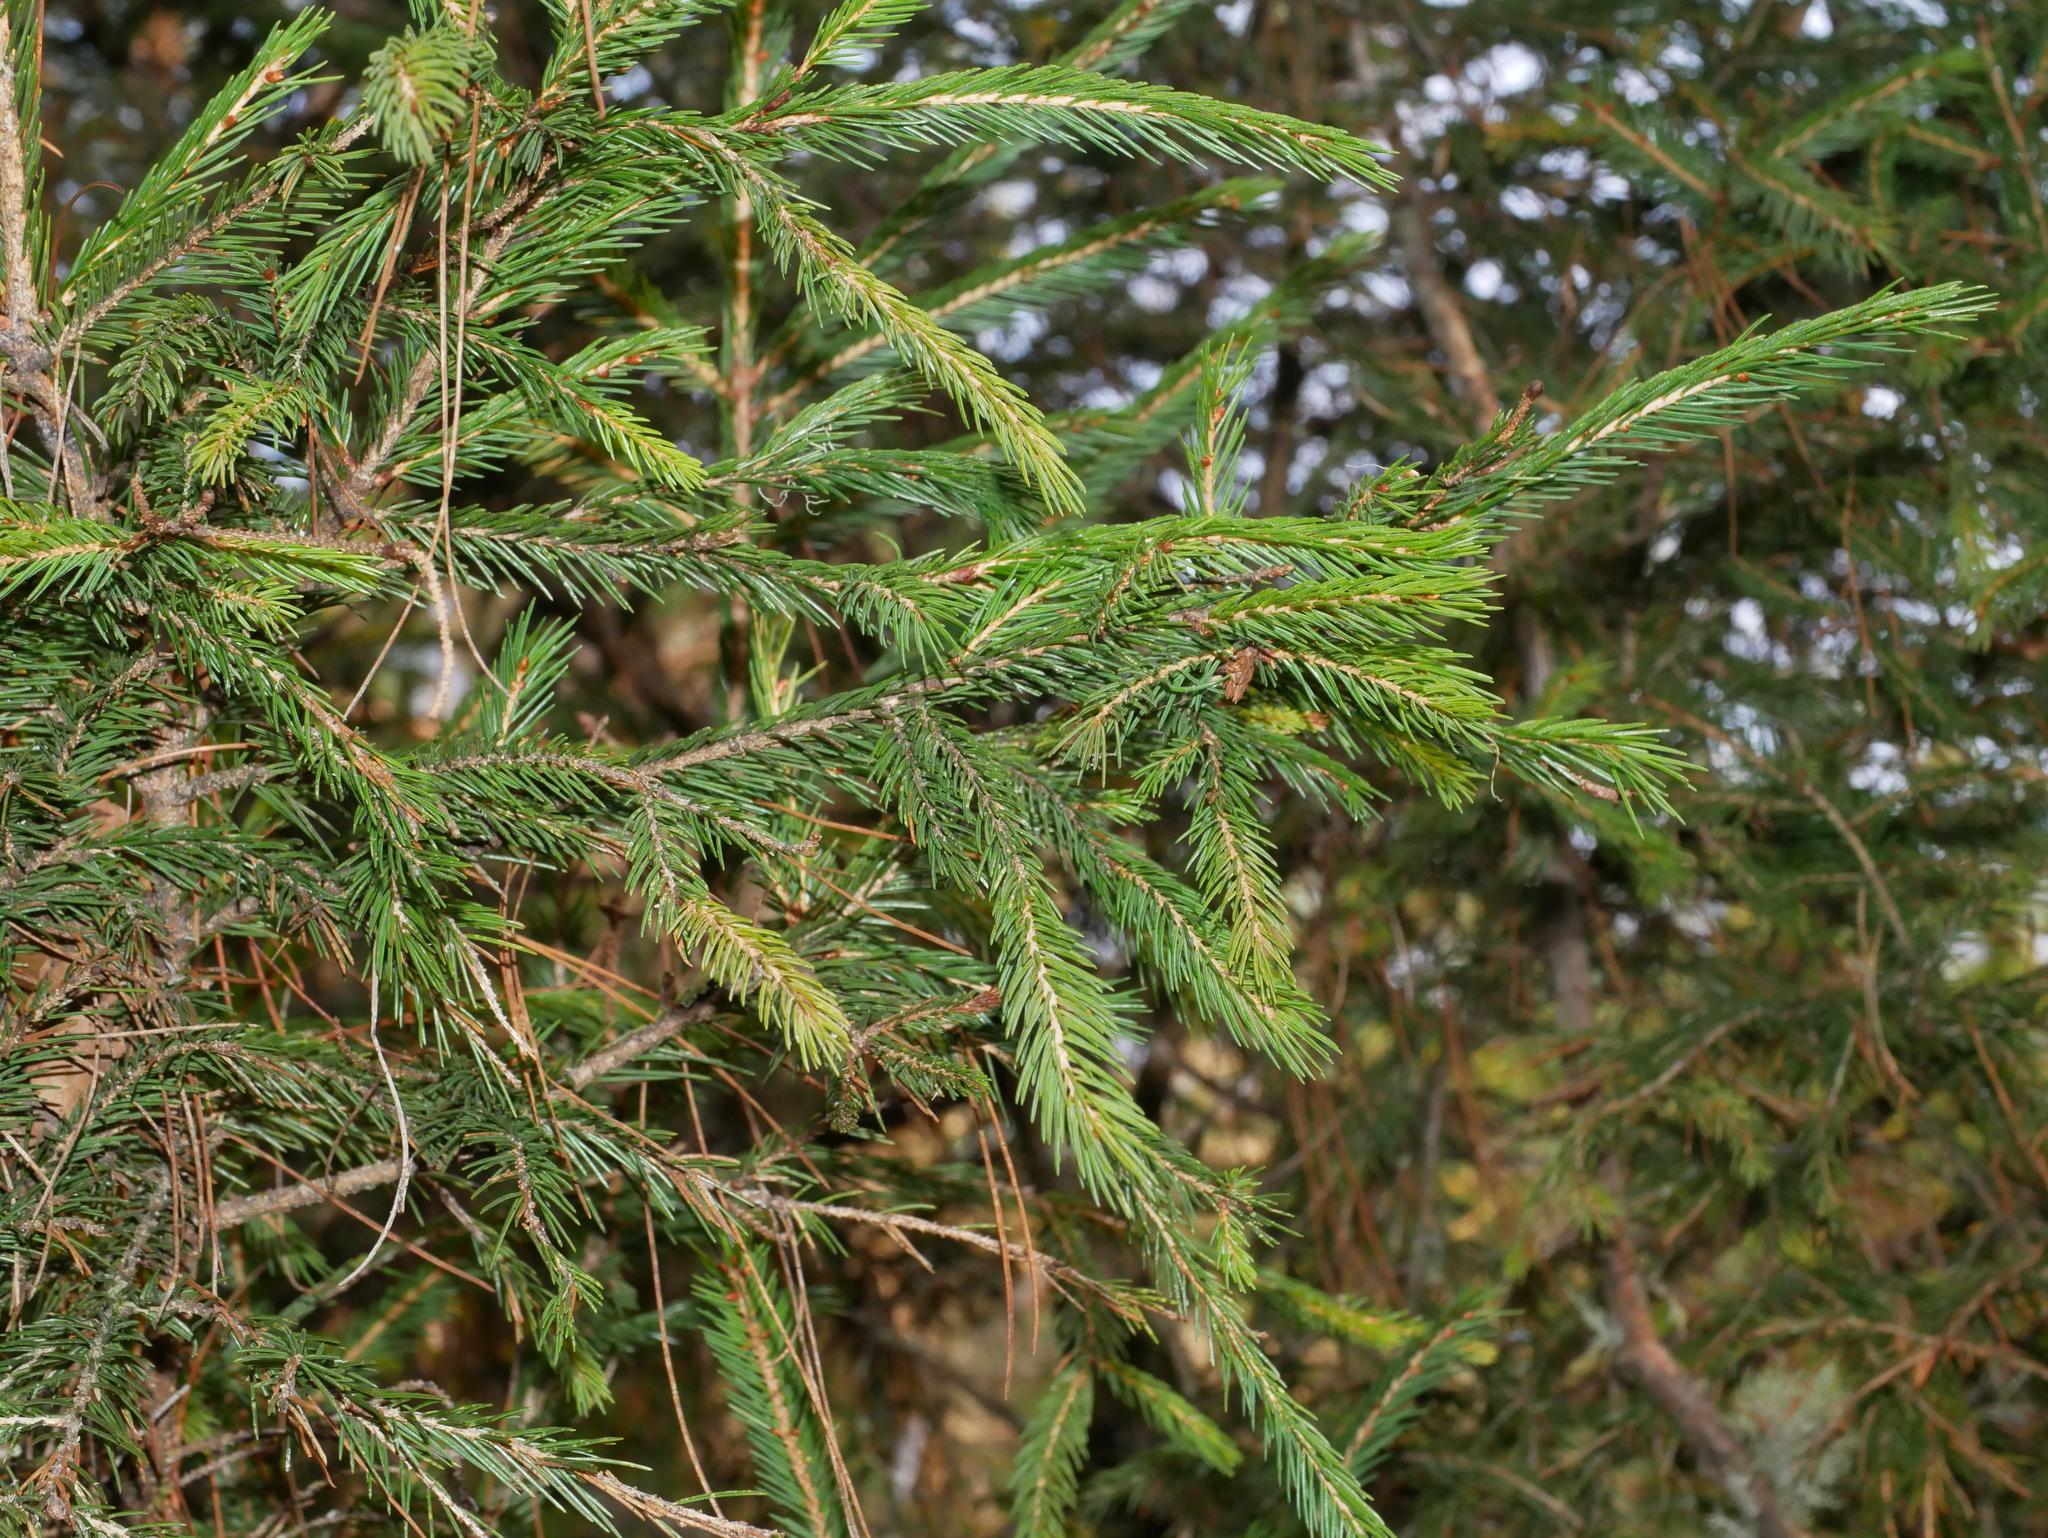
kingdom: Plantae
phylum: Tracheophyta
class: Pinopsida
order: Pinales
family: Pinaceae
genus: Picea
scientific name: Picea morrisonicola
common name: Mount morrison spruce
